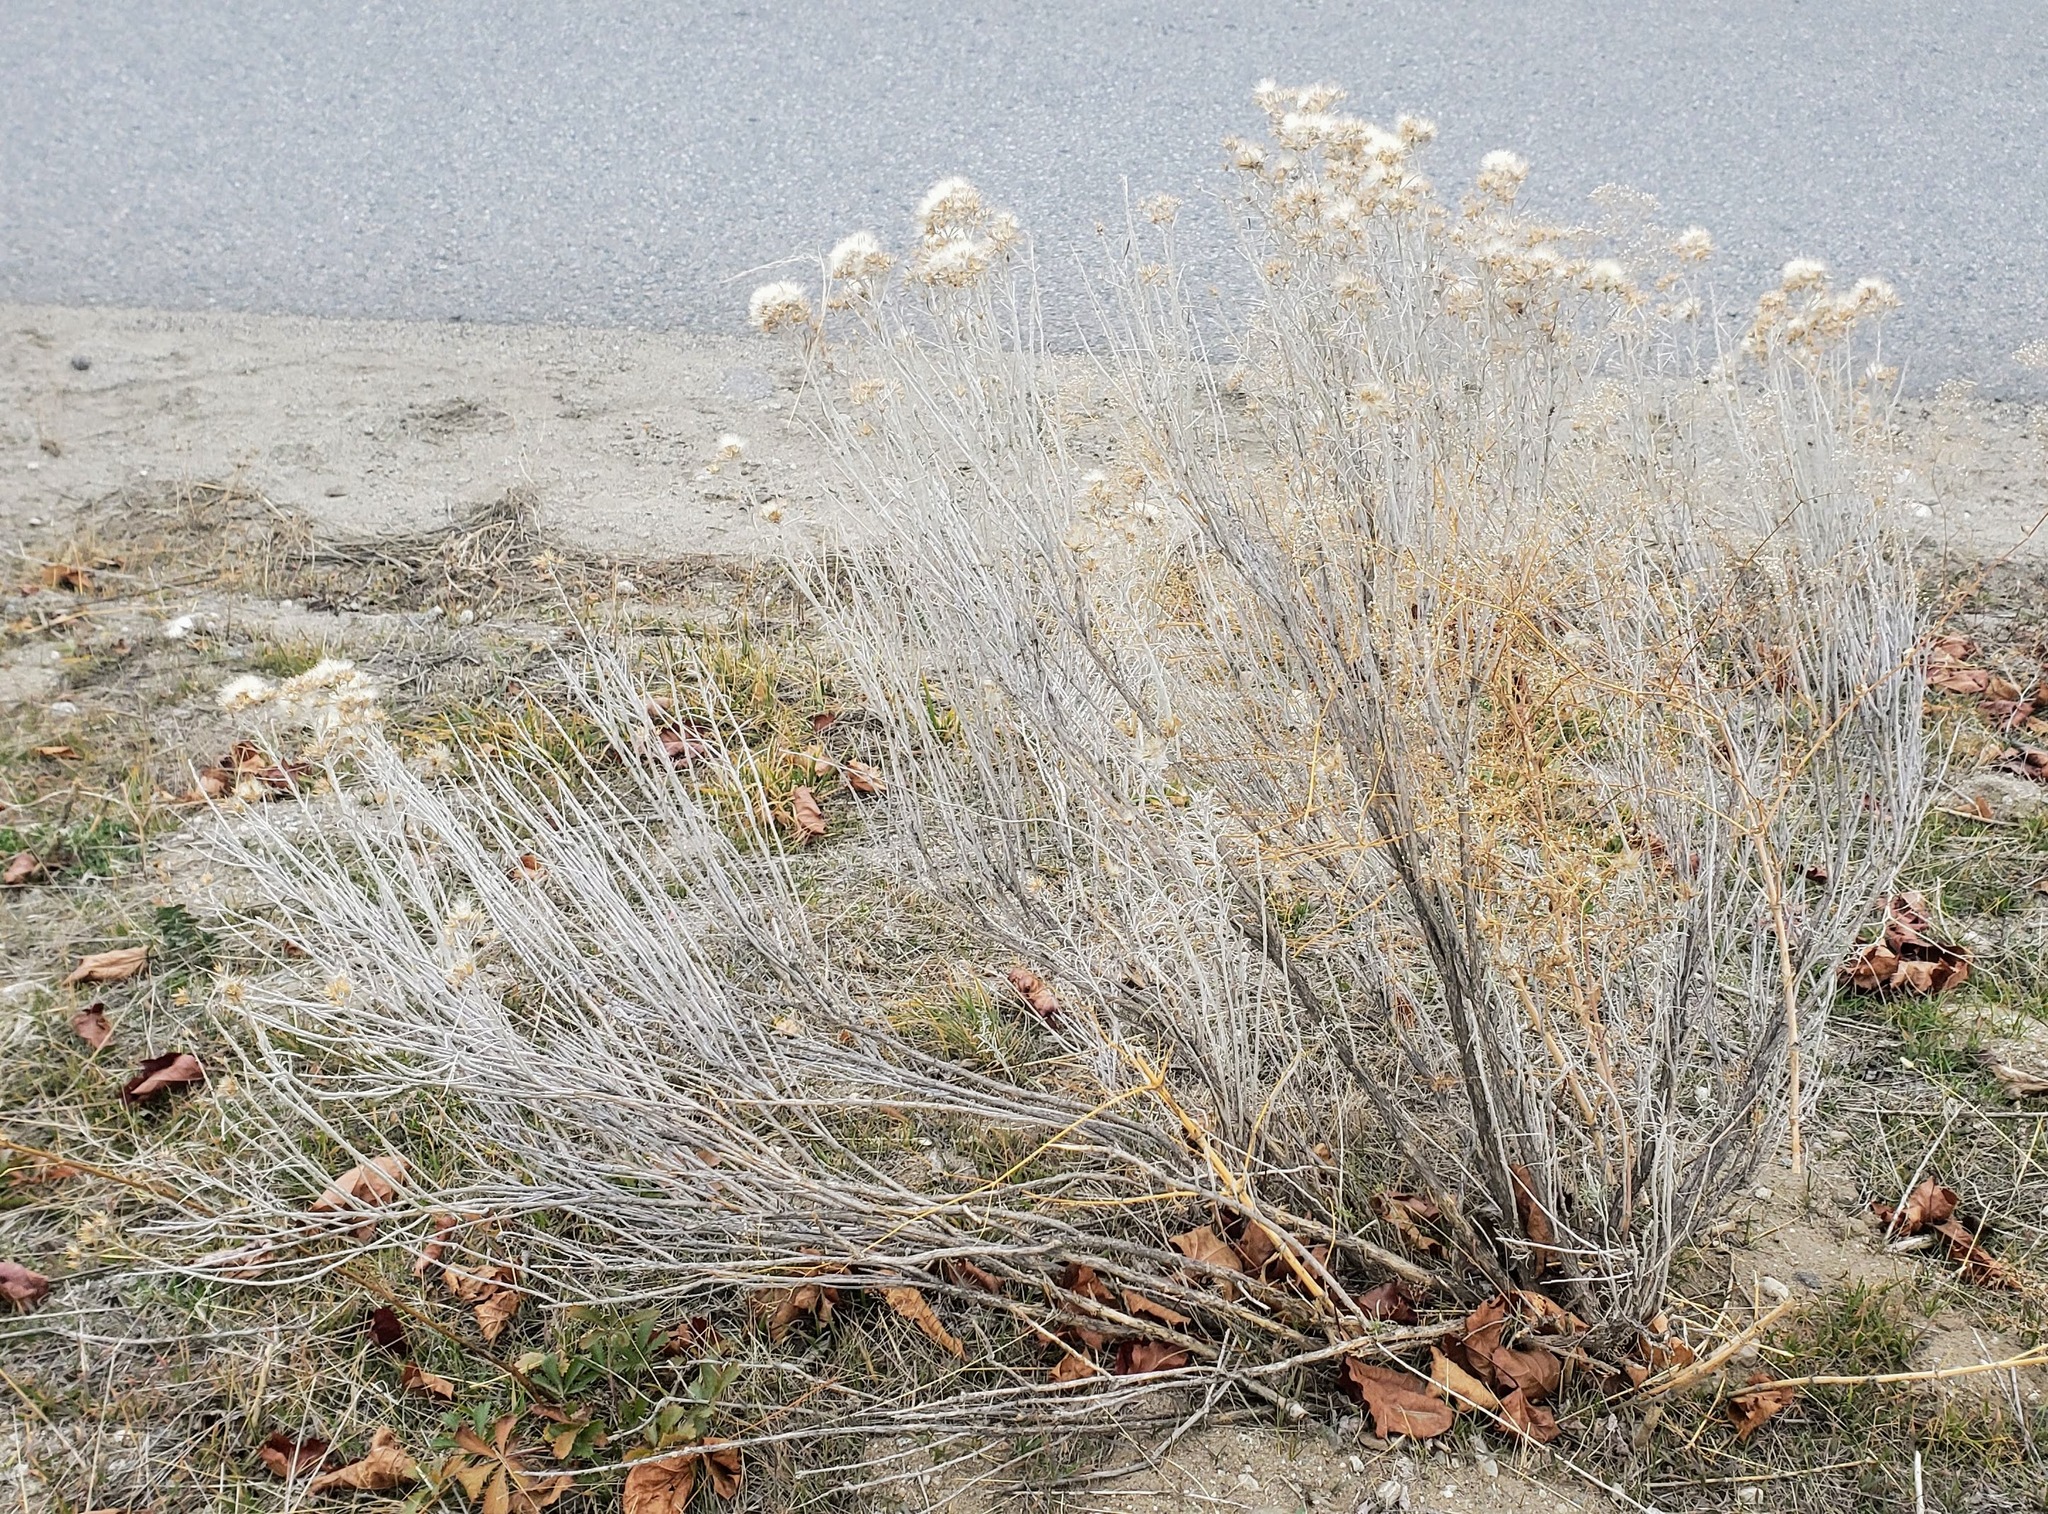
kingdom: Plantae
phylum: Tracheophyta
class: Magnoliopsida
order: Asterales
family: Asteraceae
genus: Ericameria
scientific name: Ericameria nauseosa
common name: Rubber rabbitbrush
